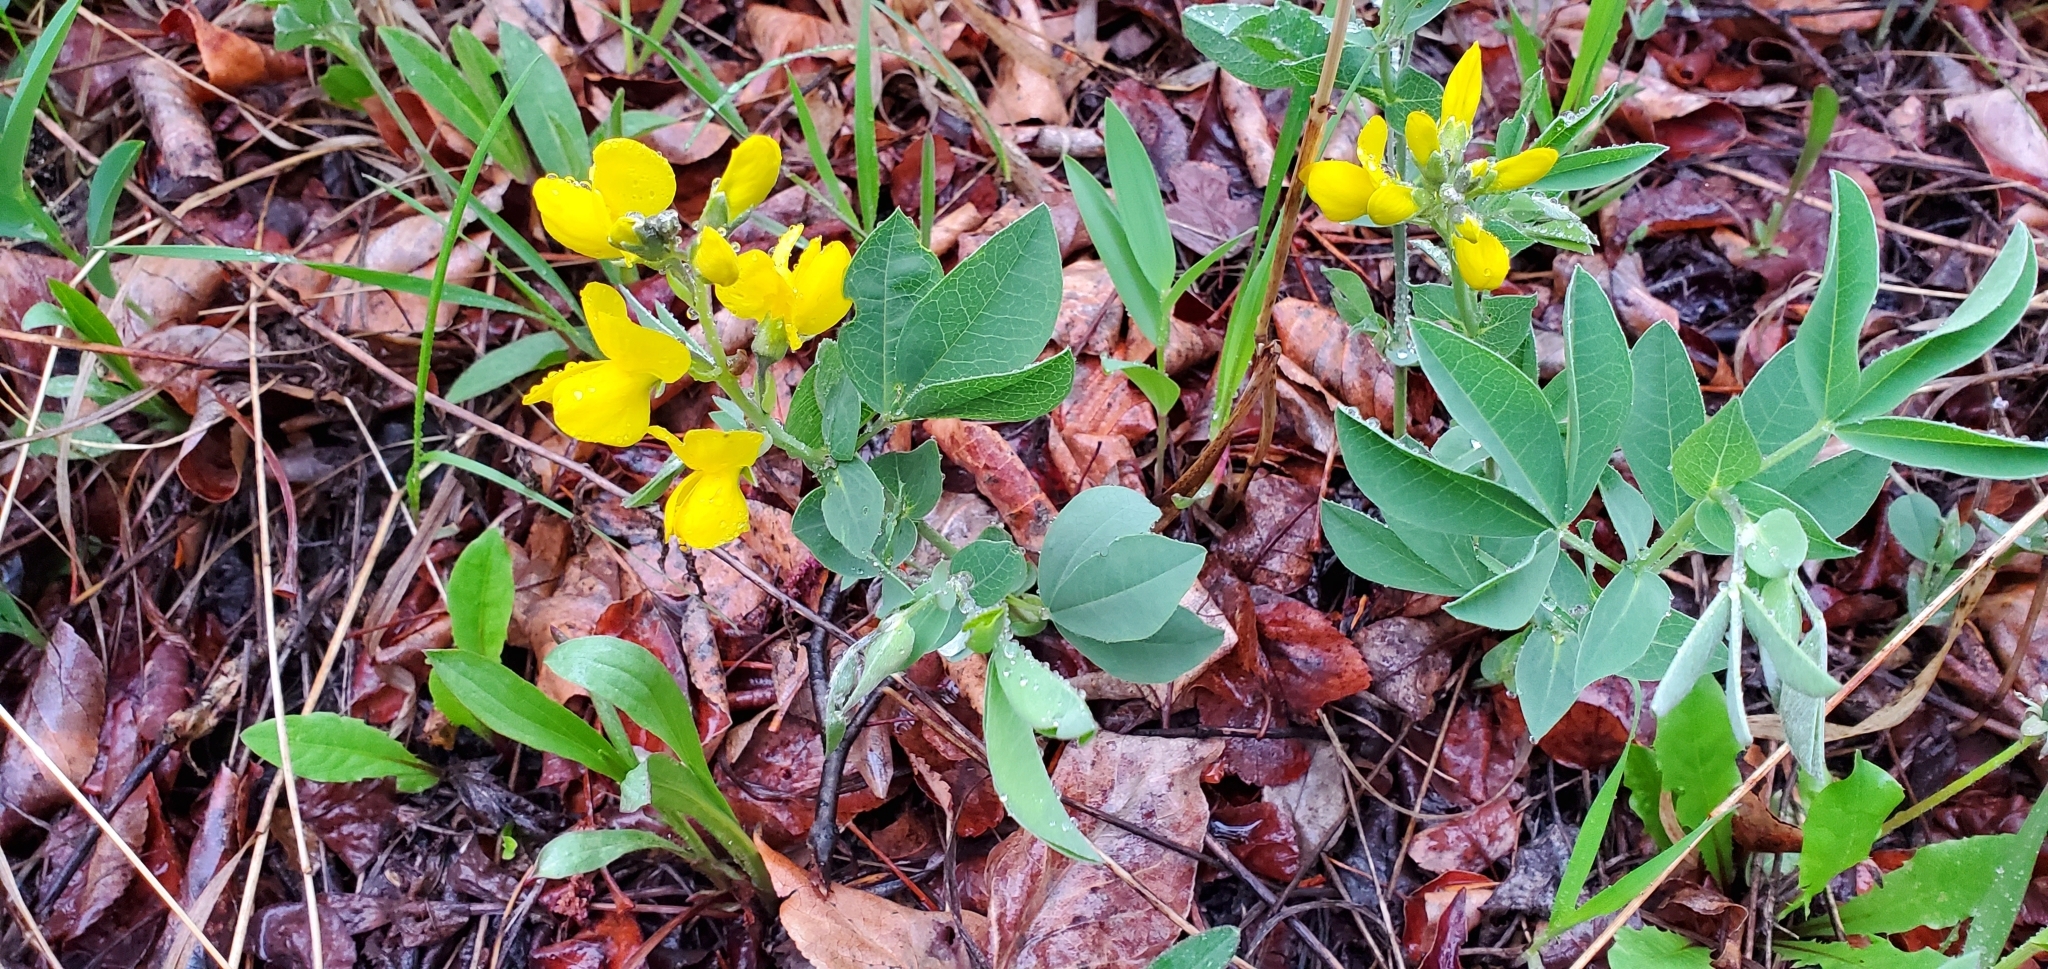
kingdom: Plantae
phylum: Tracheophyta
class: Magnoliopsida
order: Fabales
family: Fabaceae
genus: Thermopsis
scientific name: Thermopsis rhombifolia
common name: Circle-pod-pea
